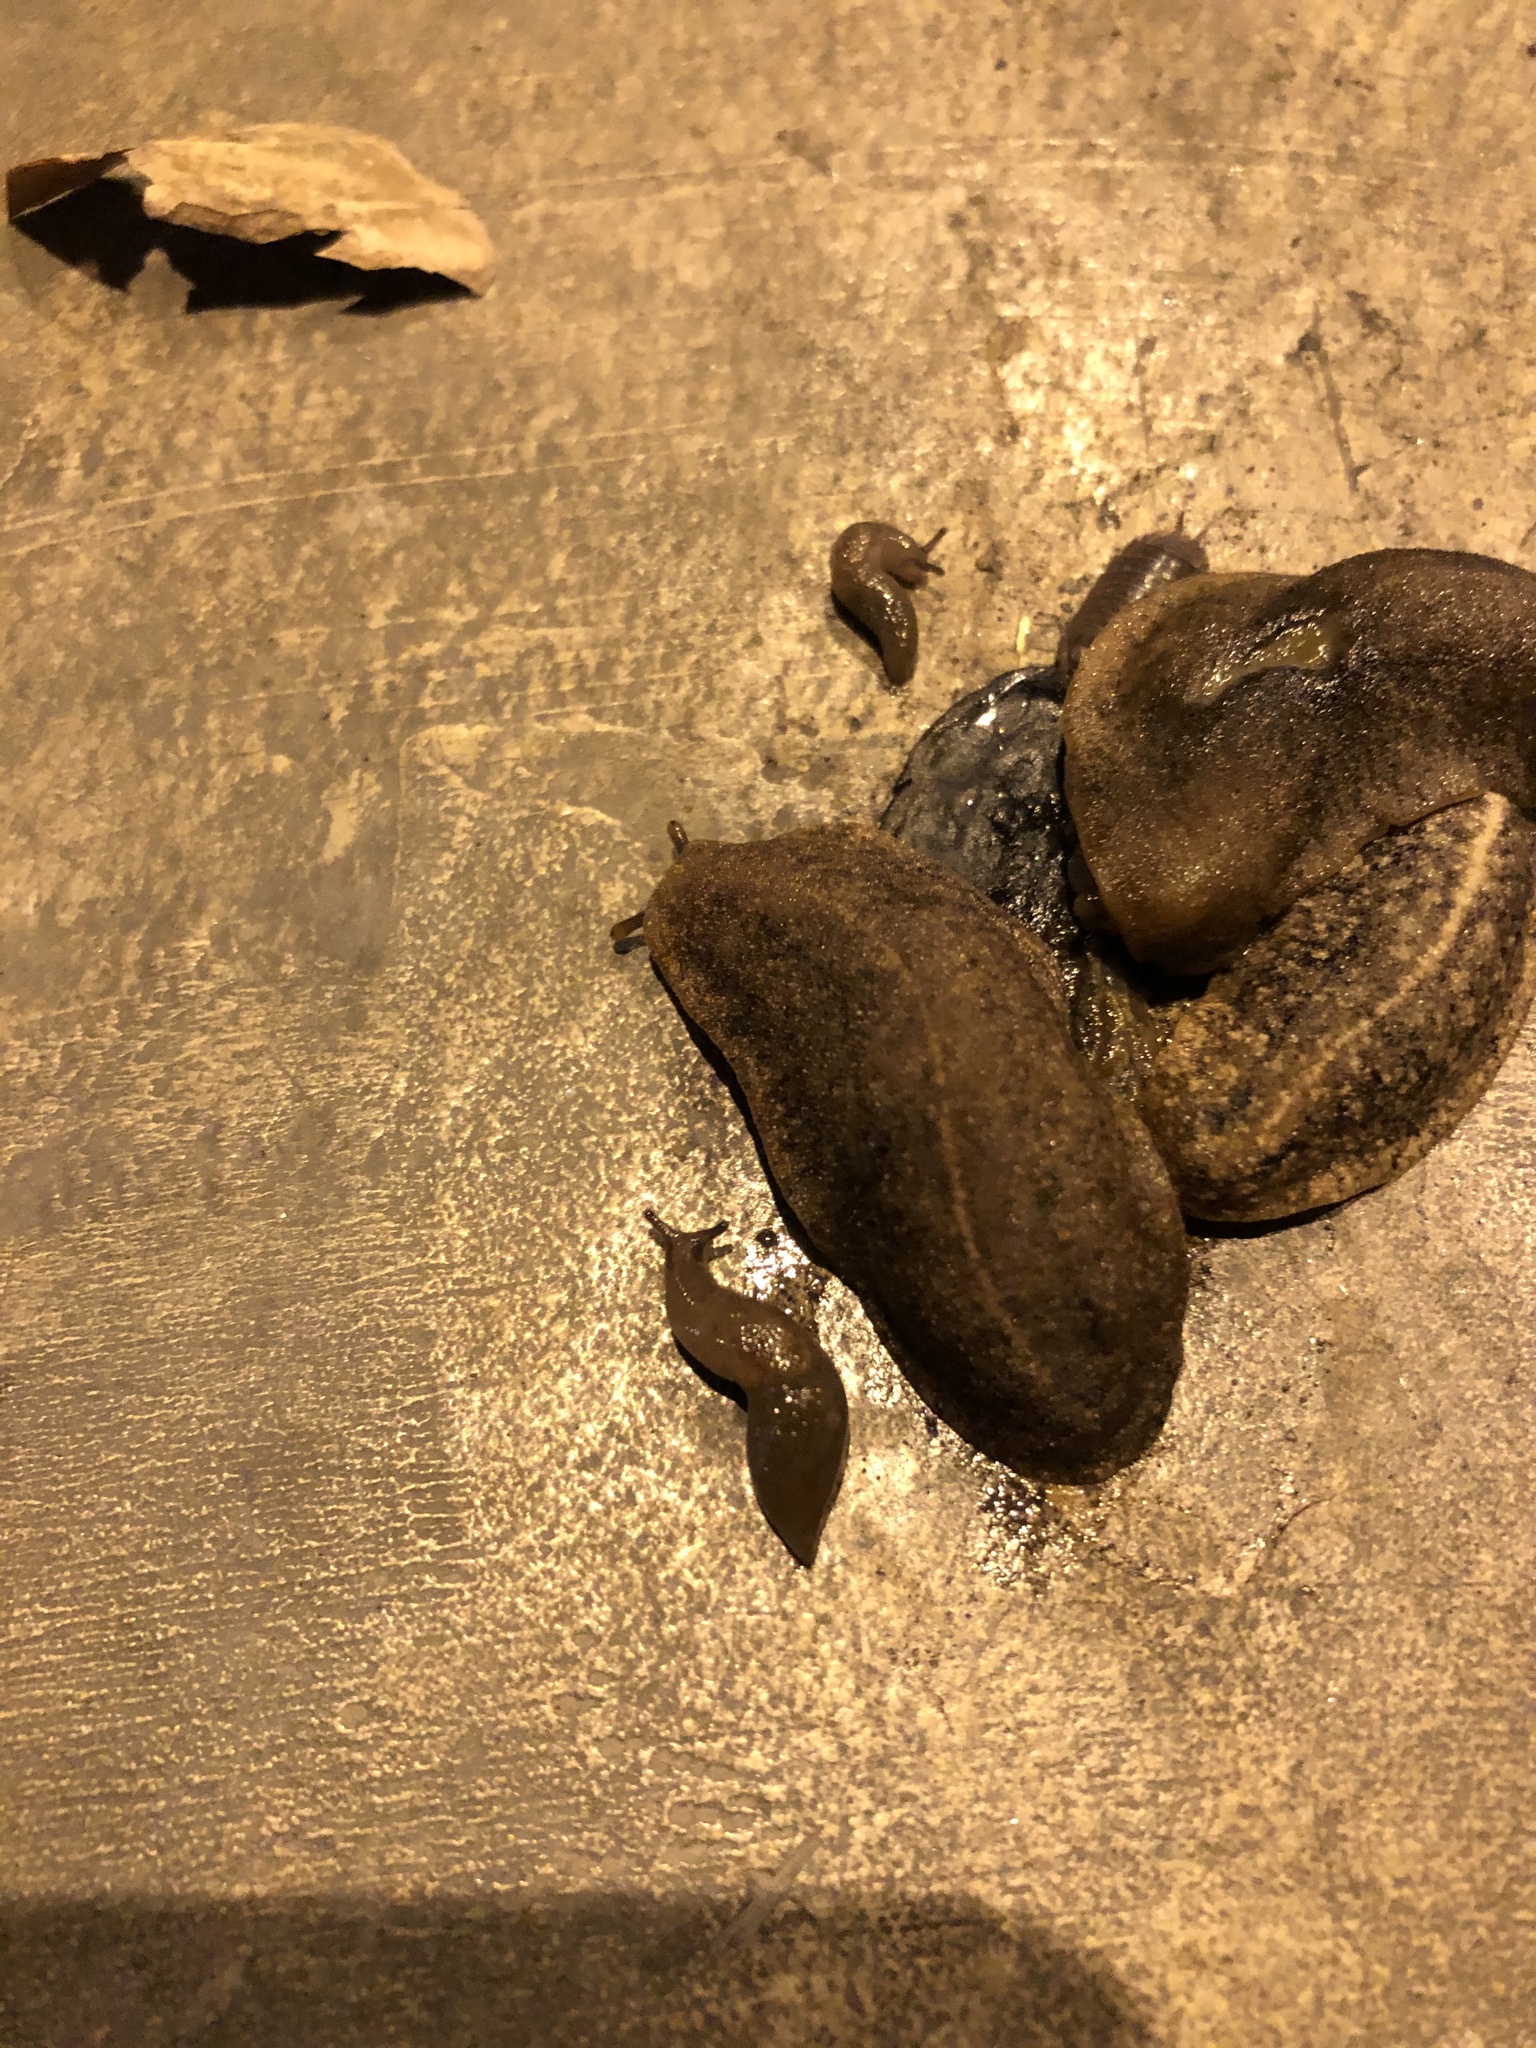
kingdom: Animalia
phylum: Mollusca
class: Gastropoda
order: Systellommatophora
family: Veronicellidae
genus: Heterovaginina
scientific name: Heterovaginina limayana
